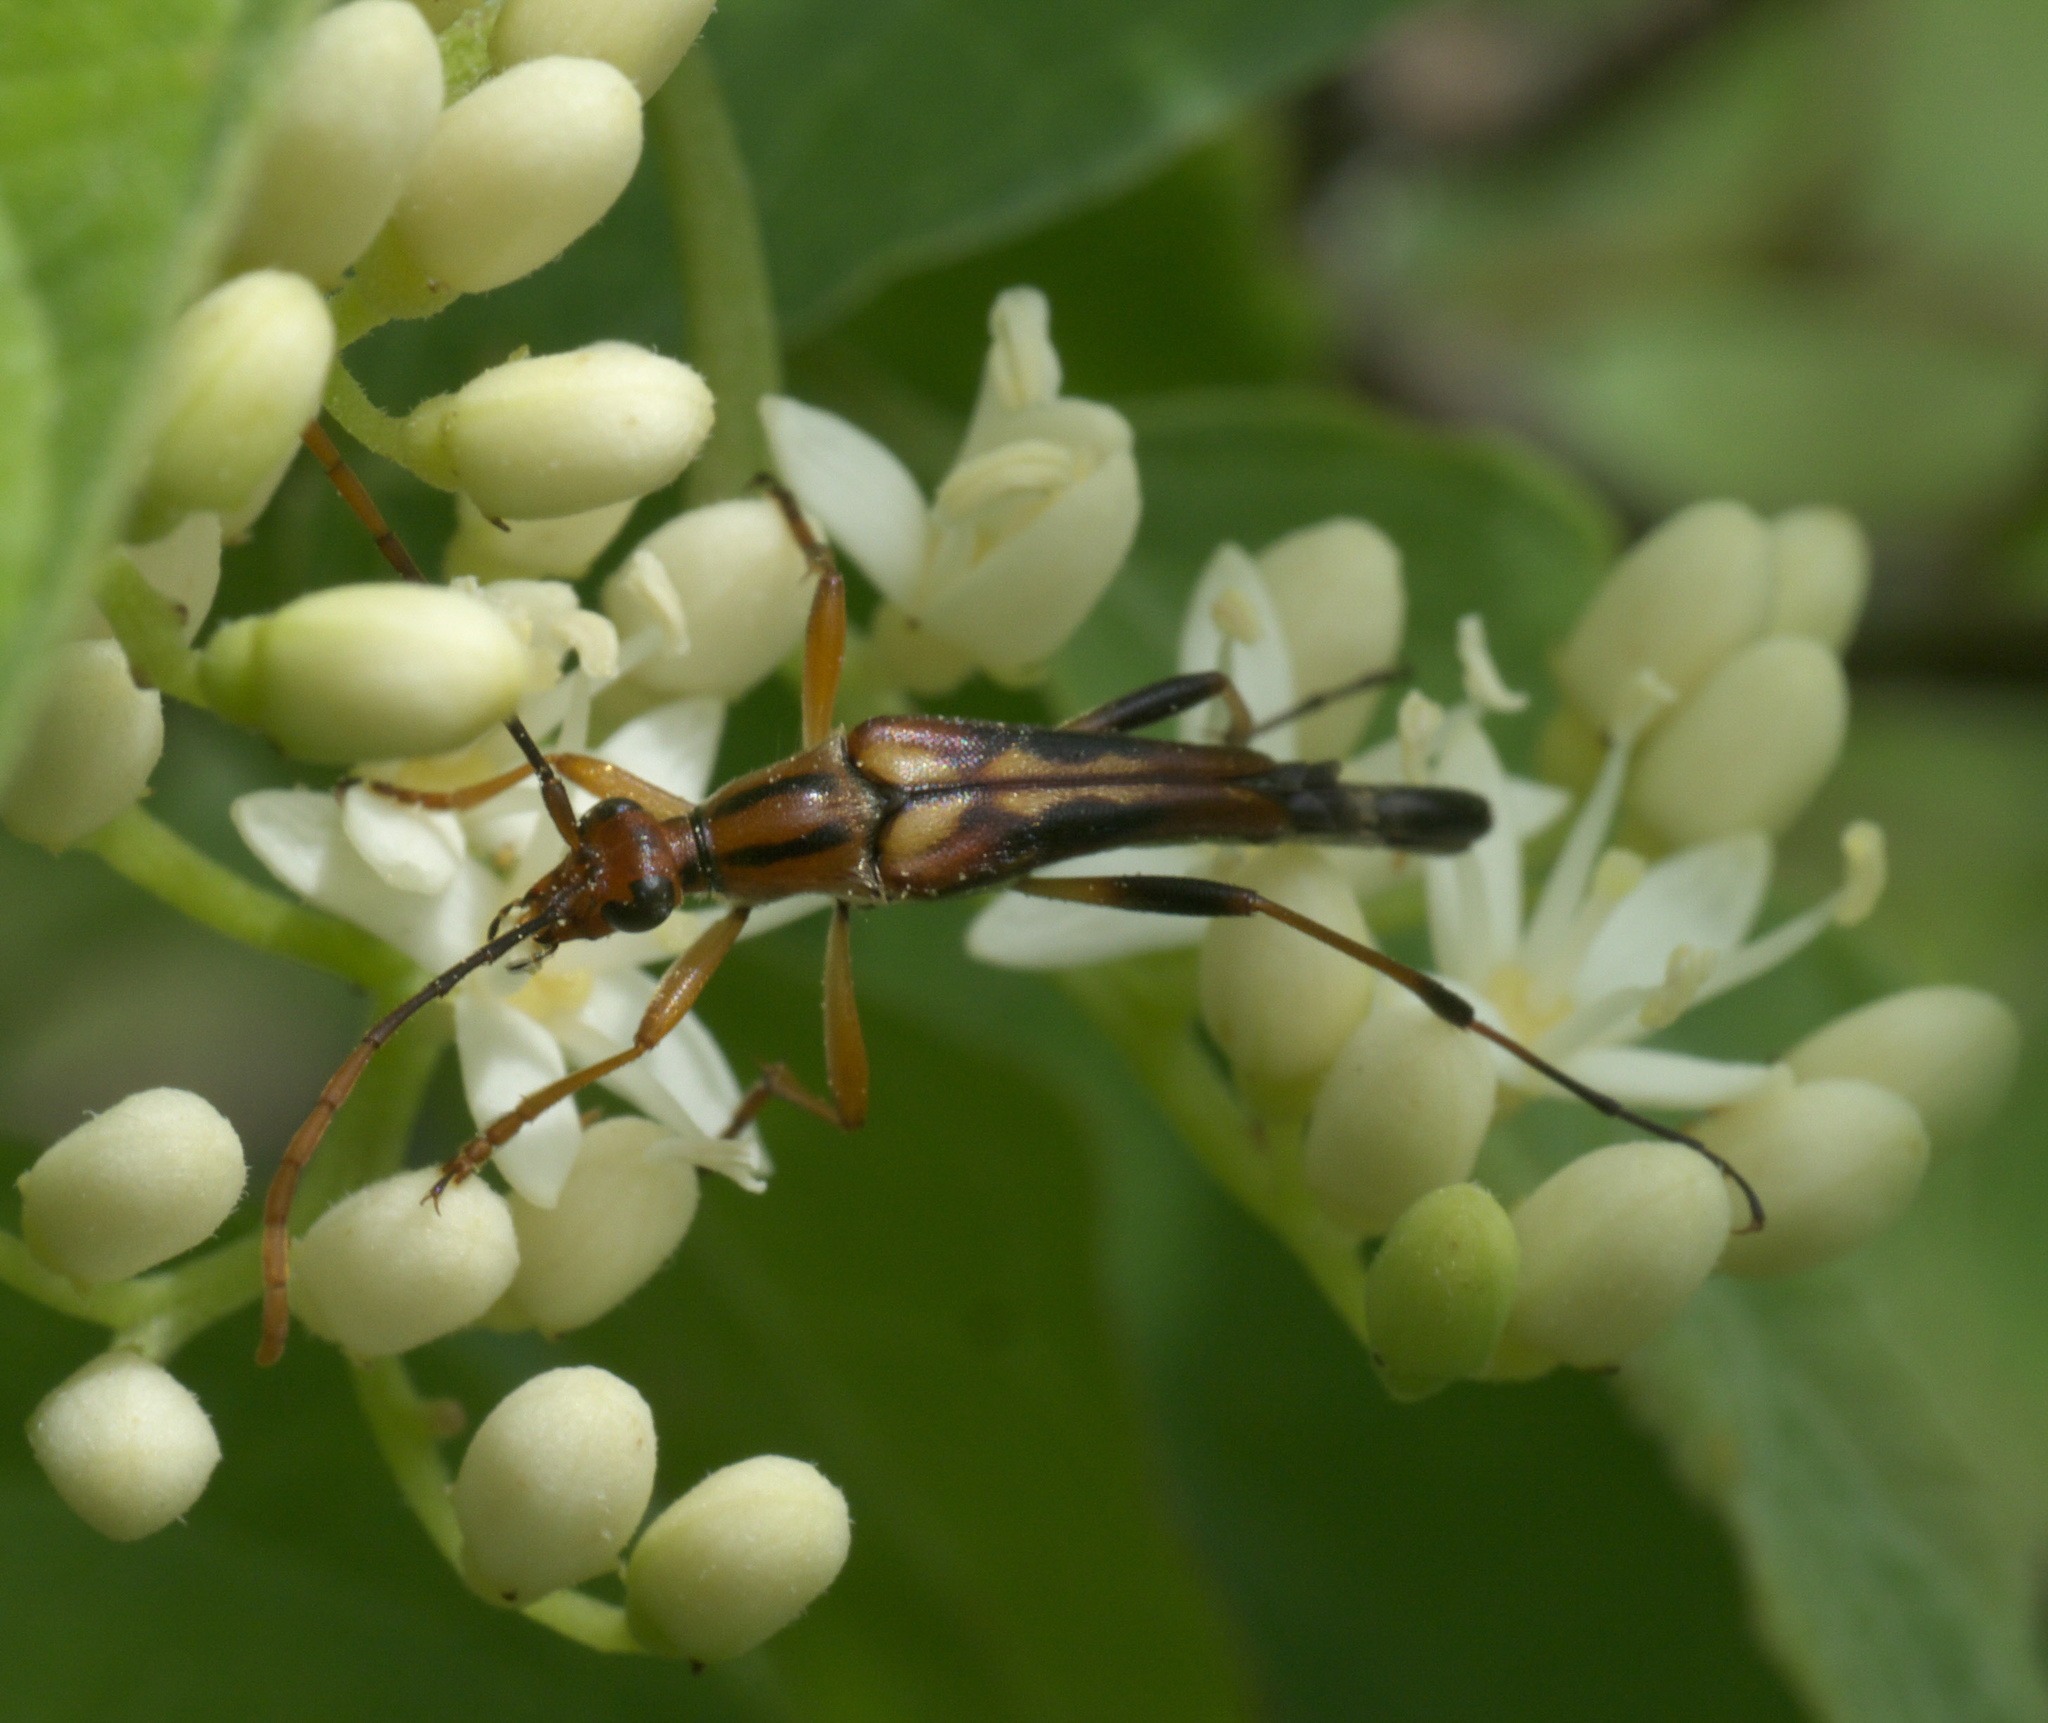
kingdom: Animalia
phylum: Arthropoda
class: Insecta
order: Coleoptera
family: Cerambycidae
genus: Strangalia
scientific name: Strangalia famelica
